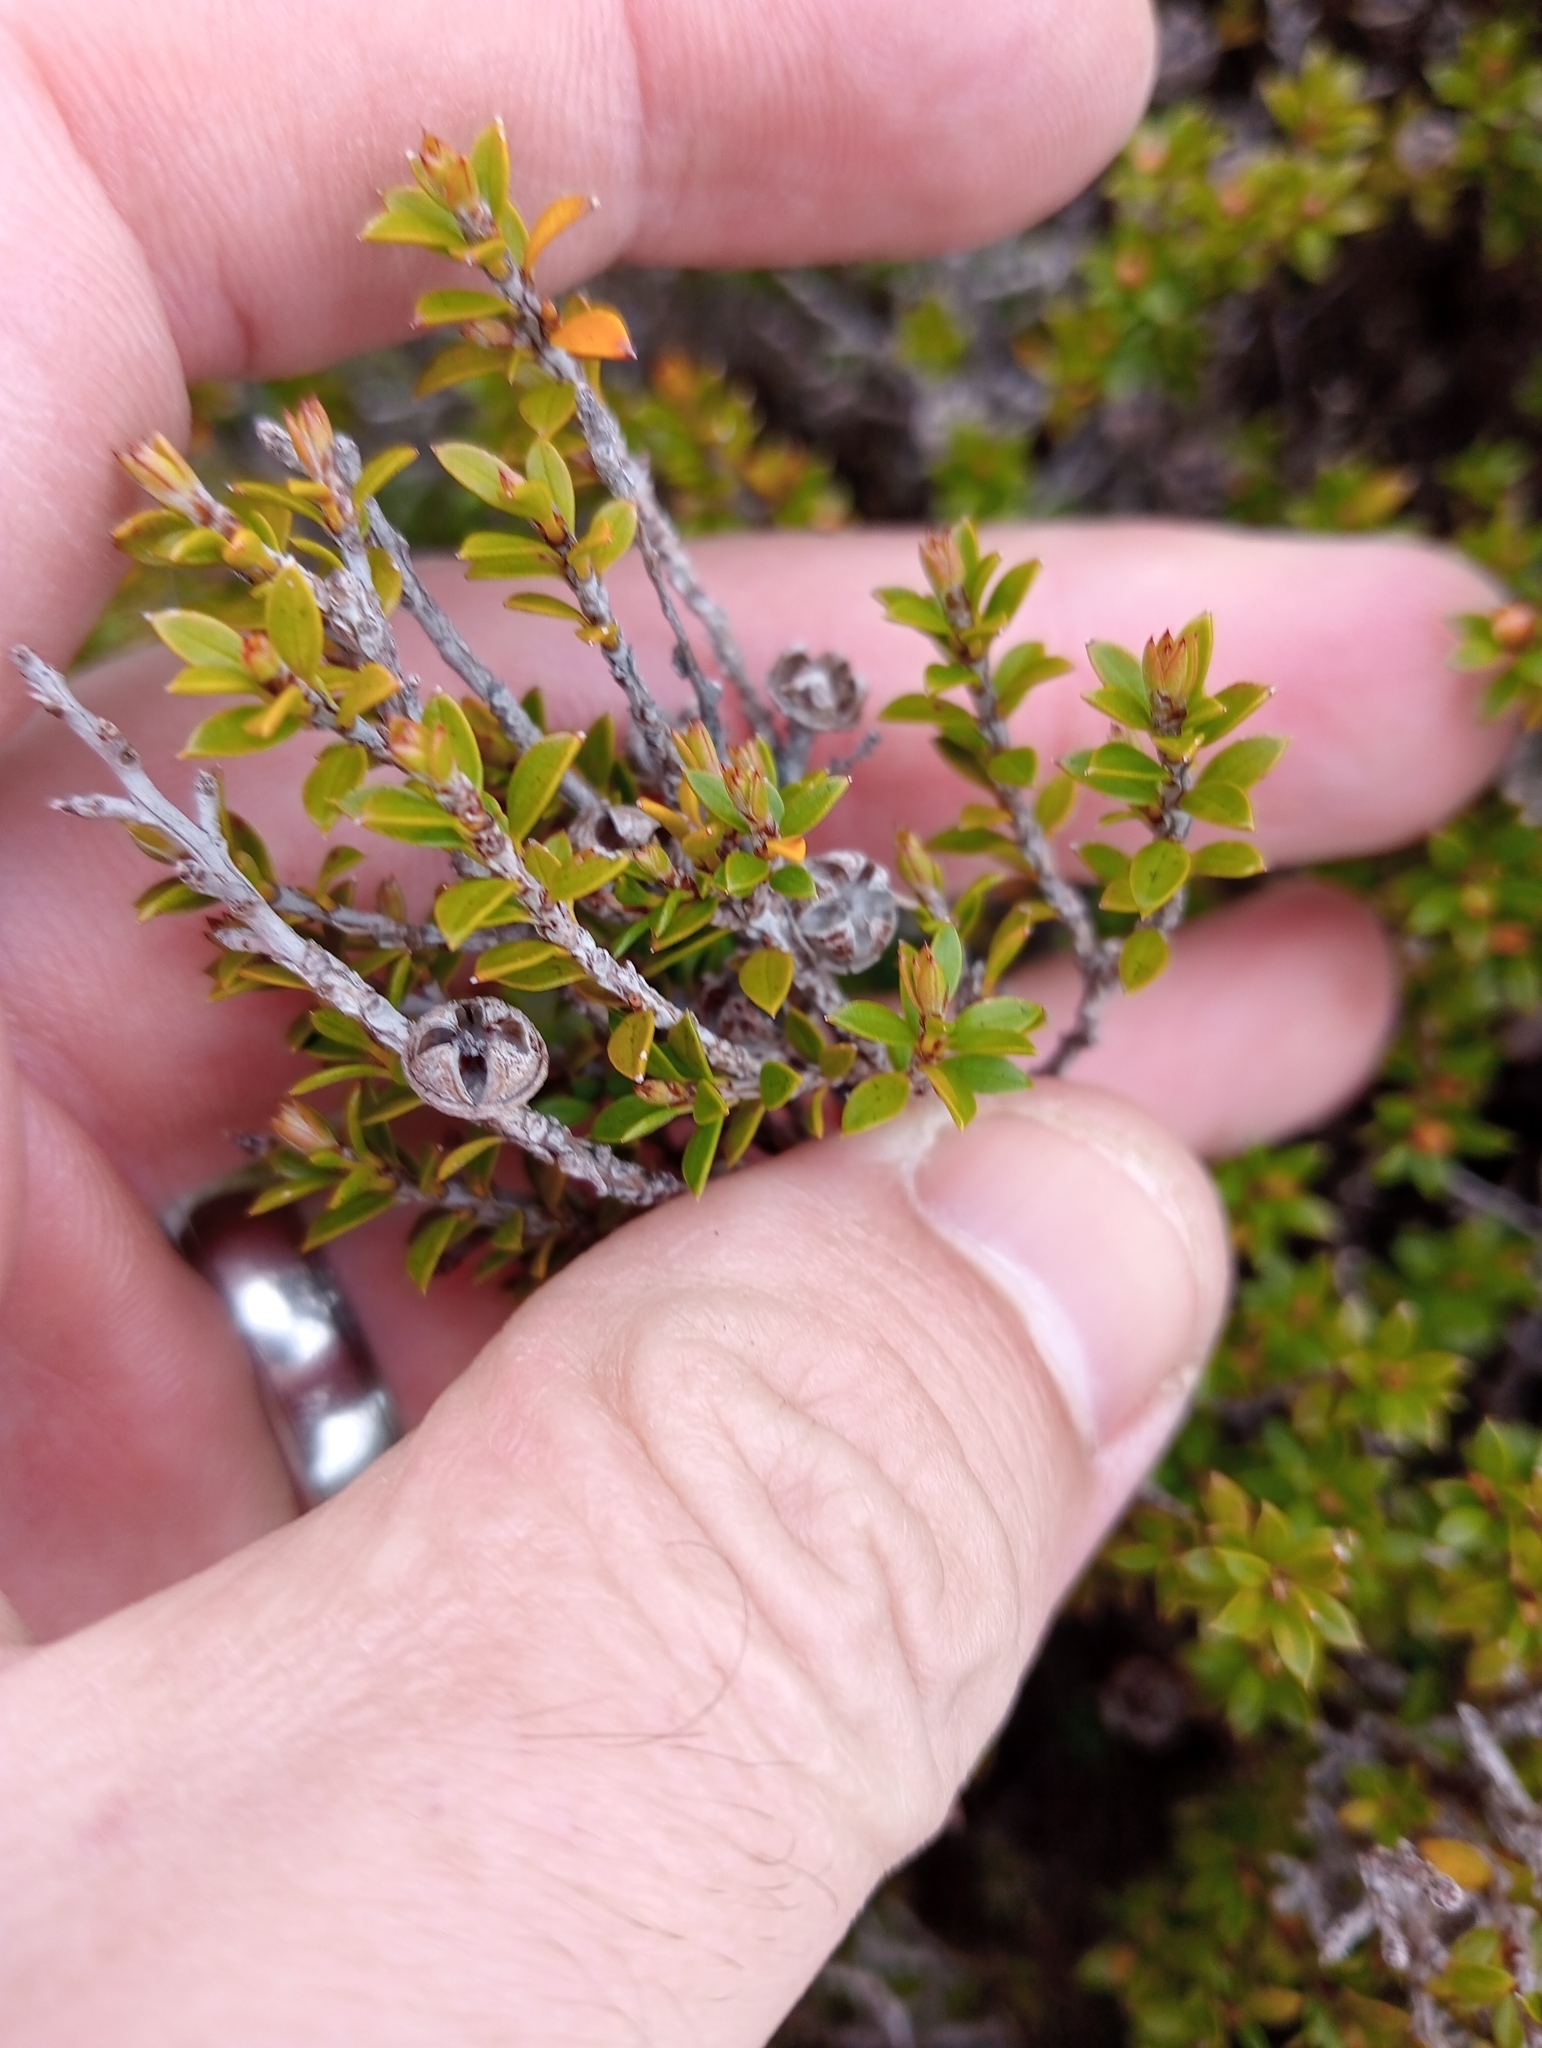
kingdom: Plantae
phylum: Tracheophyta
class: Magnoliopsida
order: Myrtales
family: Myrtaceae
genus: Leptospermum
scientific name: Leptospermum scoparium
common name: Broom tea-tree
